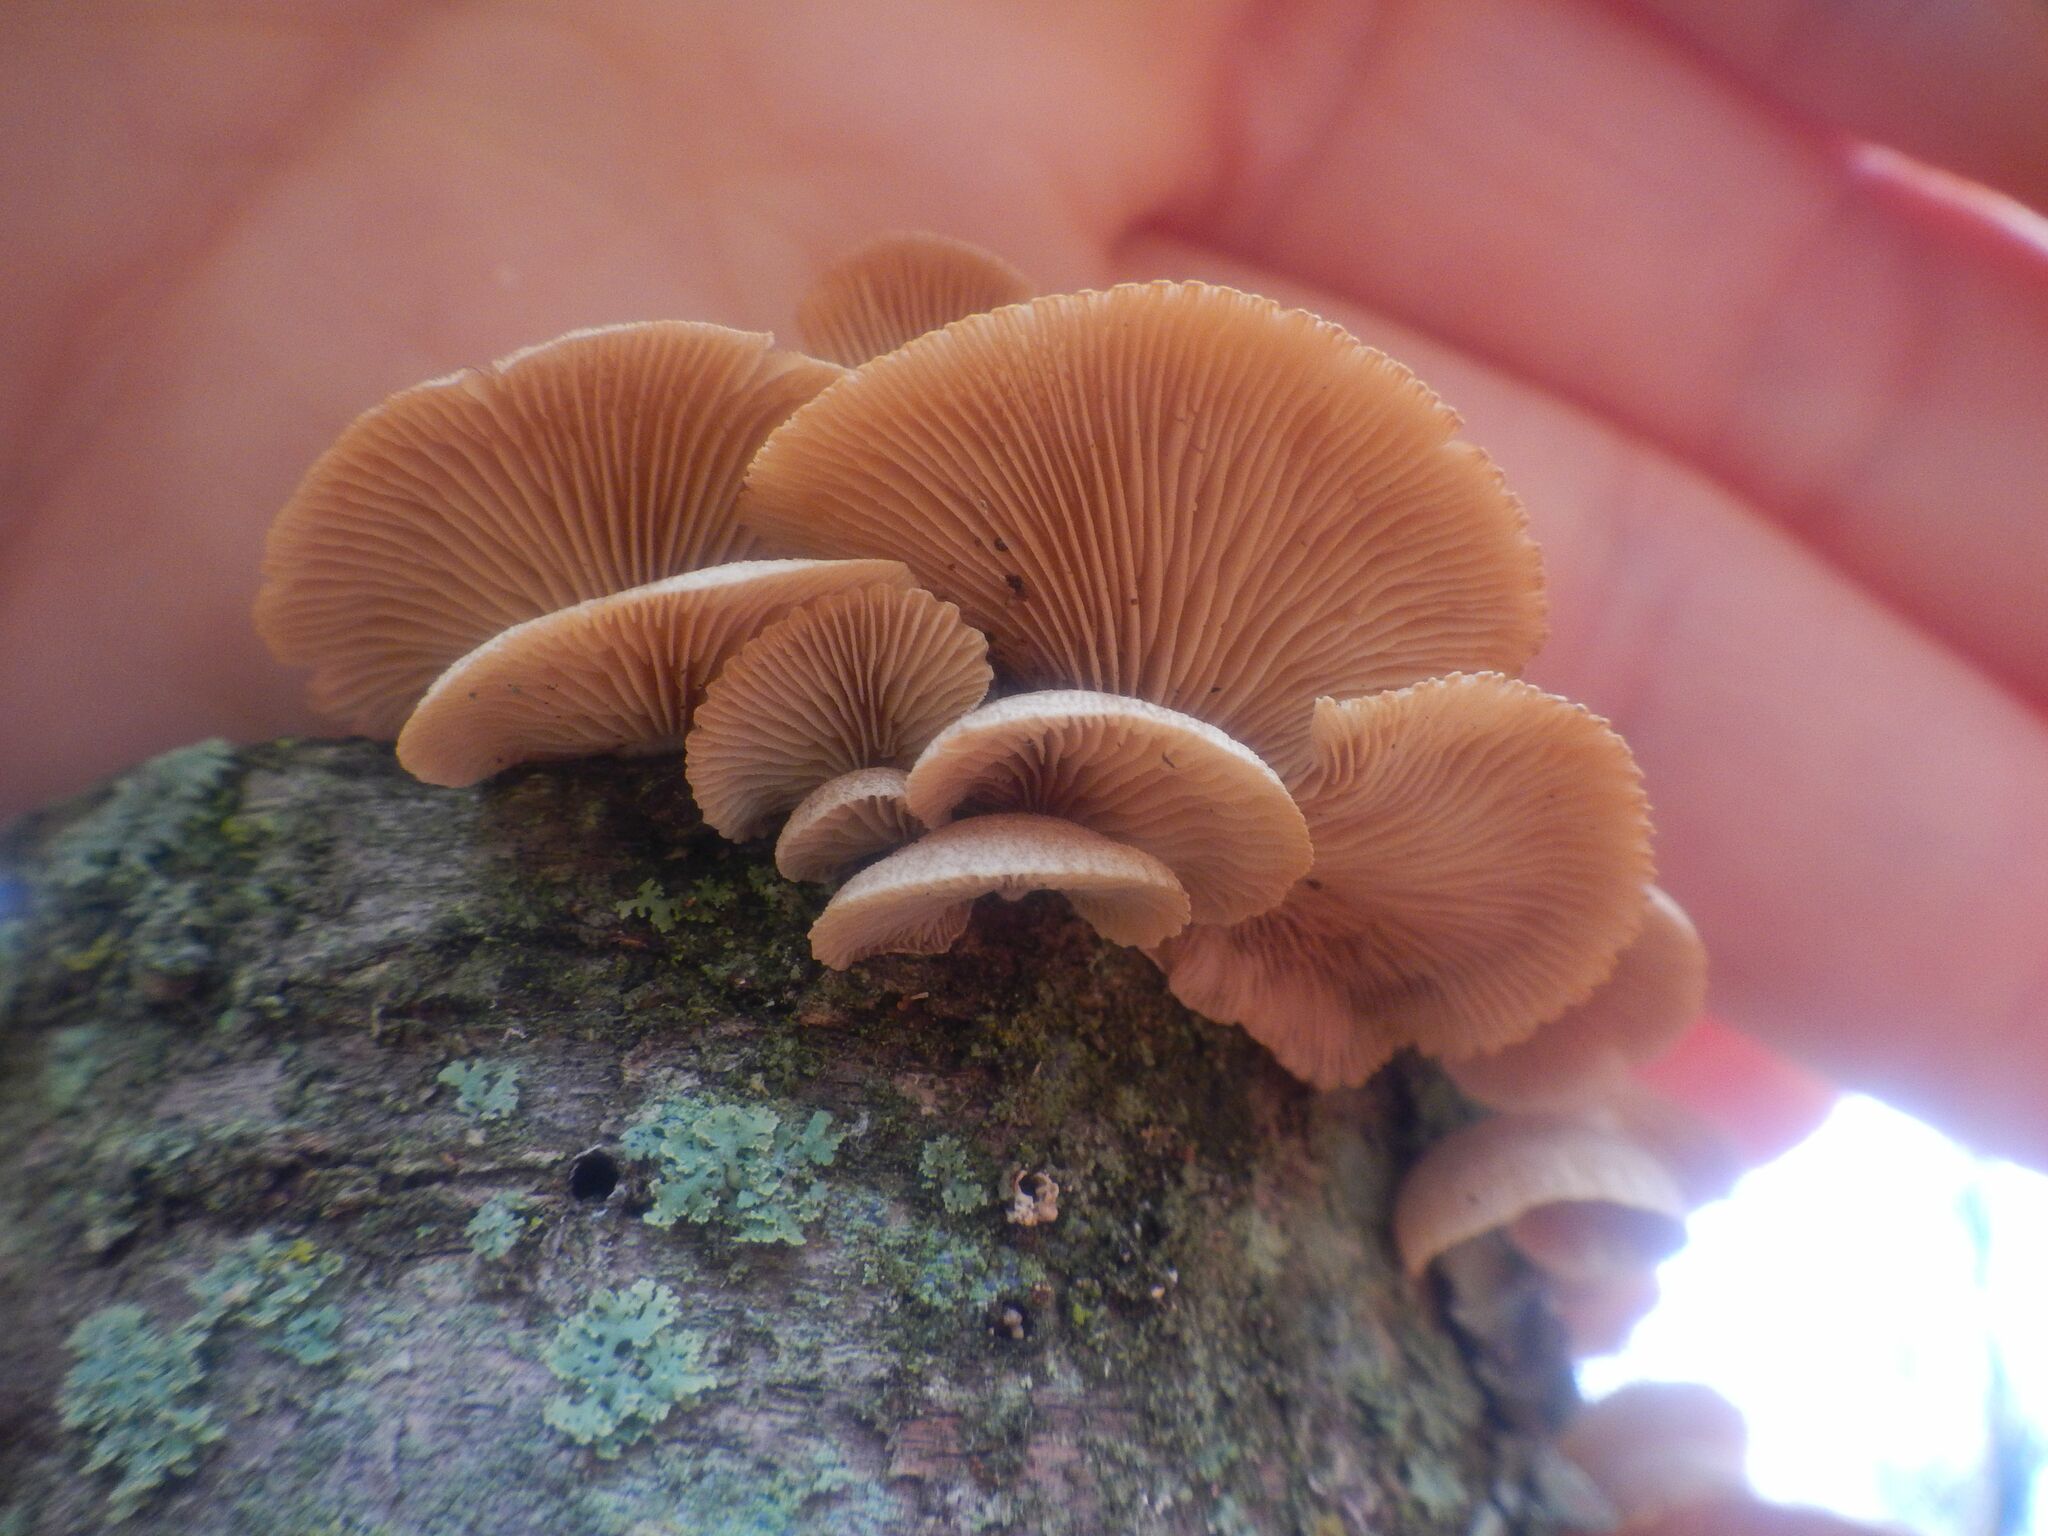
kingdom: Fungi
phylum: Basidiomycota
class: Agaricomycetes
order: Agaricales
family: Mycenaceae
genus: Panellus
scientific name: Panellus stipticus
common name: Bitter oysterling
